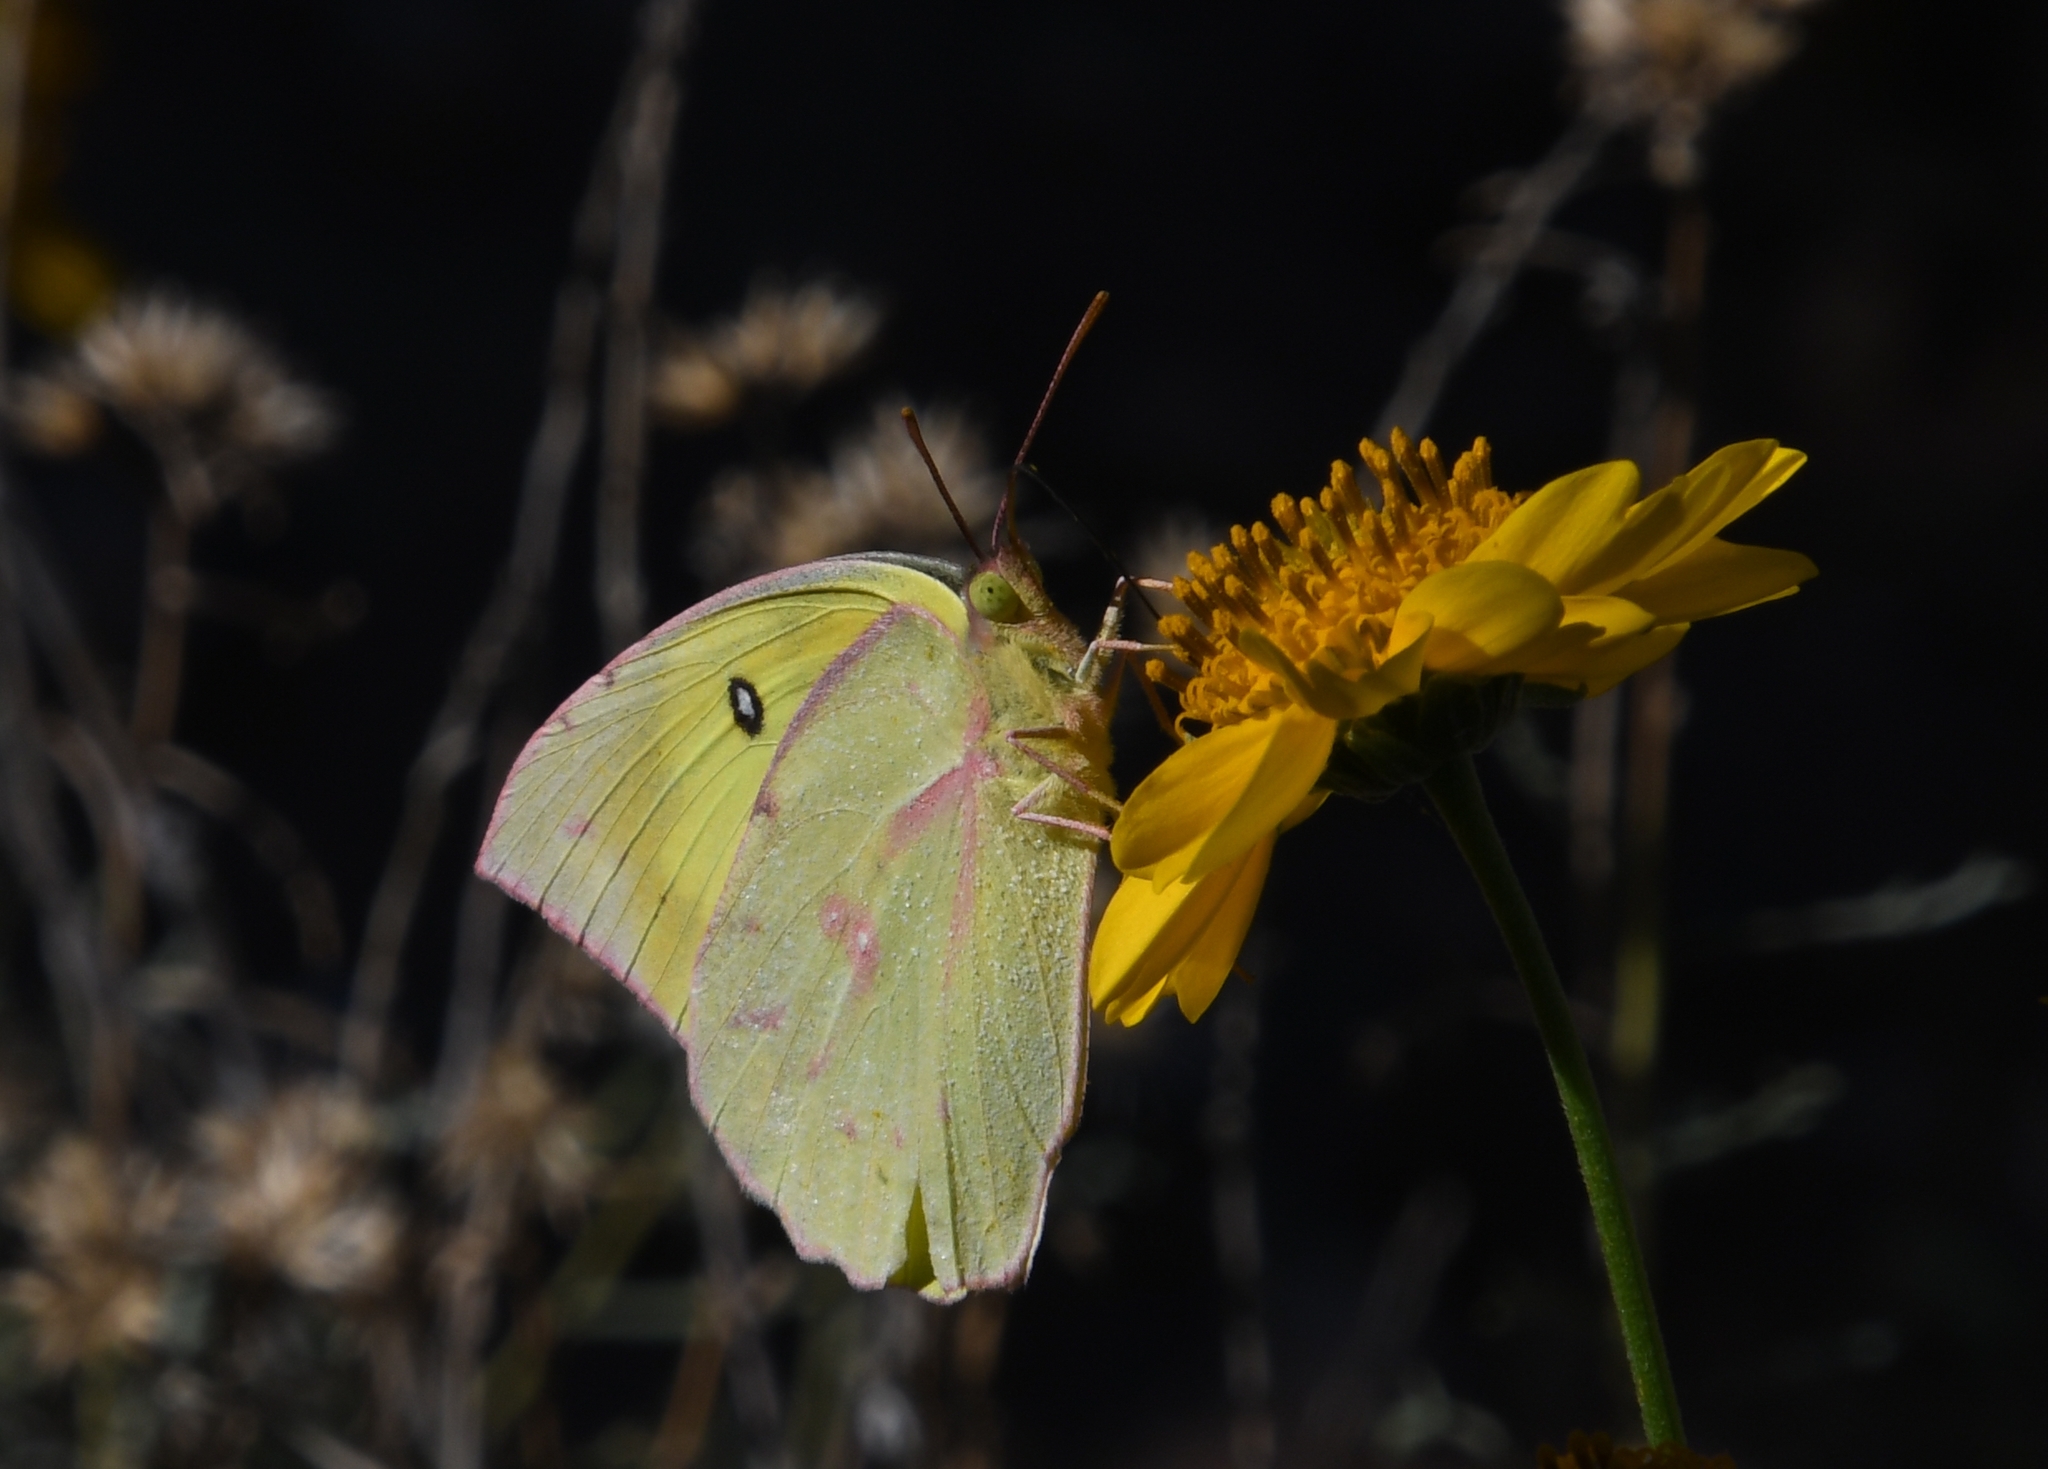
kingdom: Animalia
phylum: Arthropoda
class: Insecta
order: Lepidoptera
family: Pieridae
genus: Zerene
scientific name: Zerene cesonia
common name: Southern dogface
